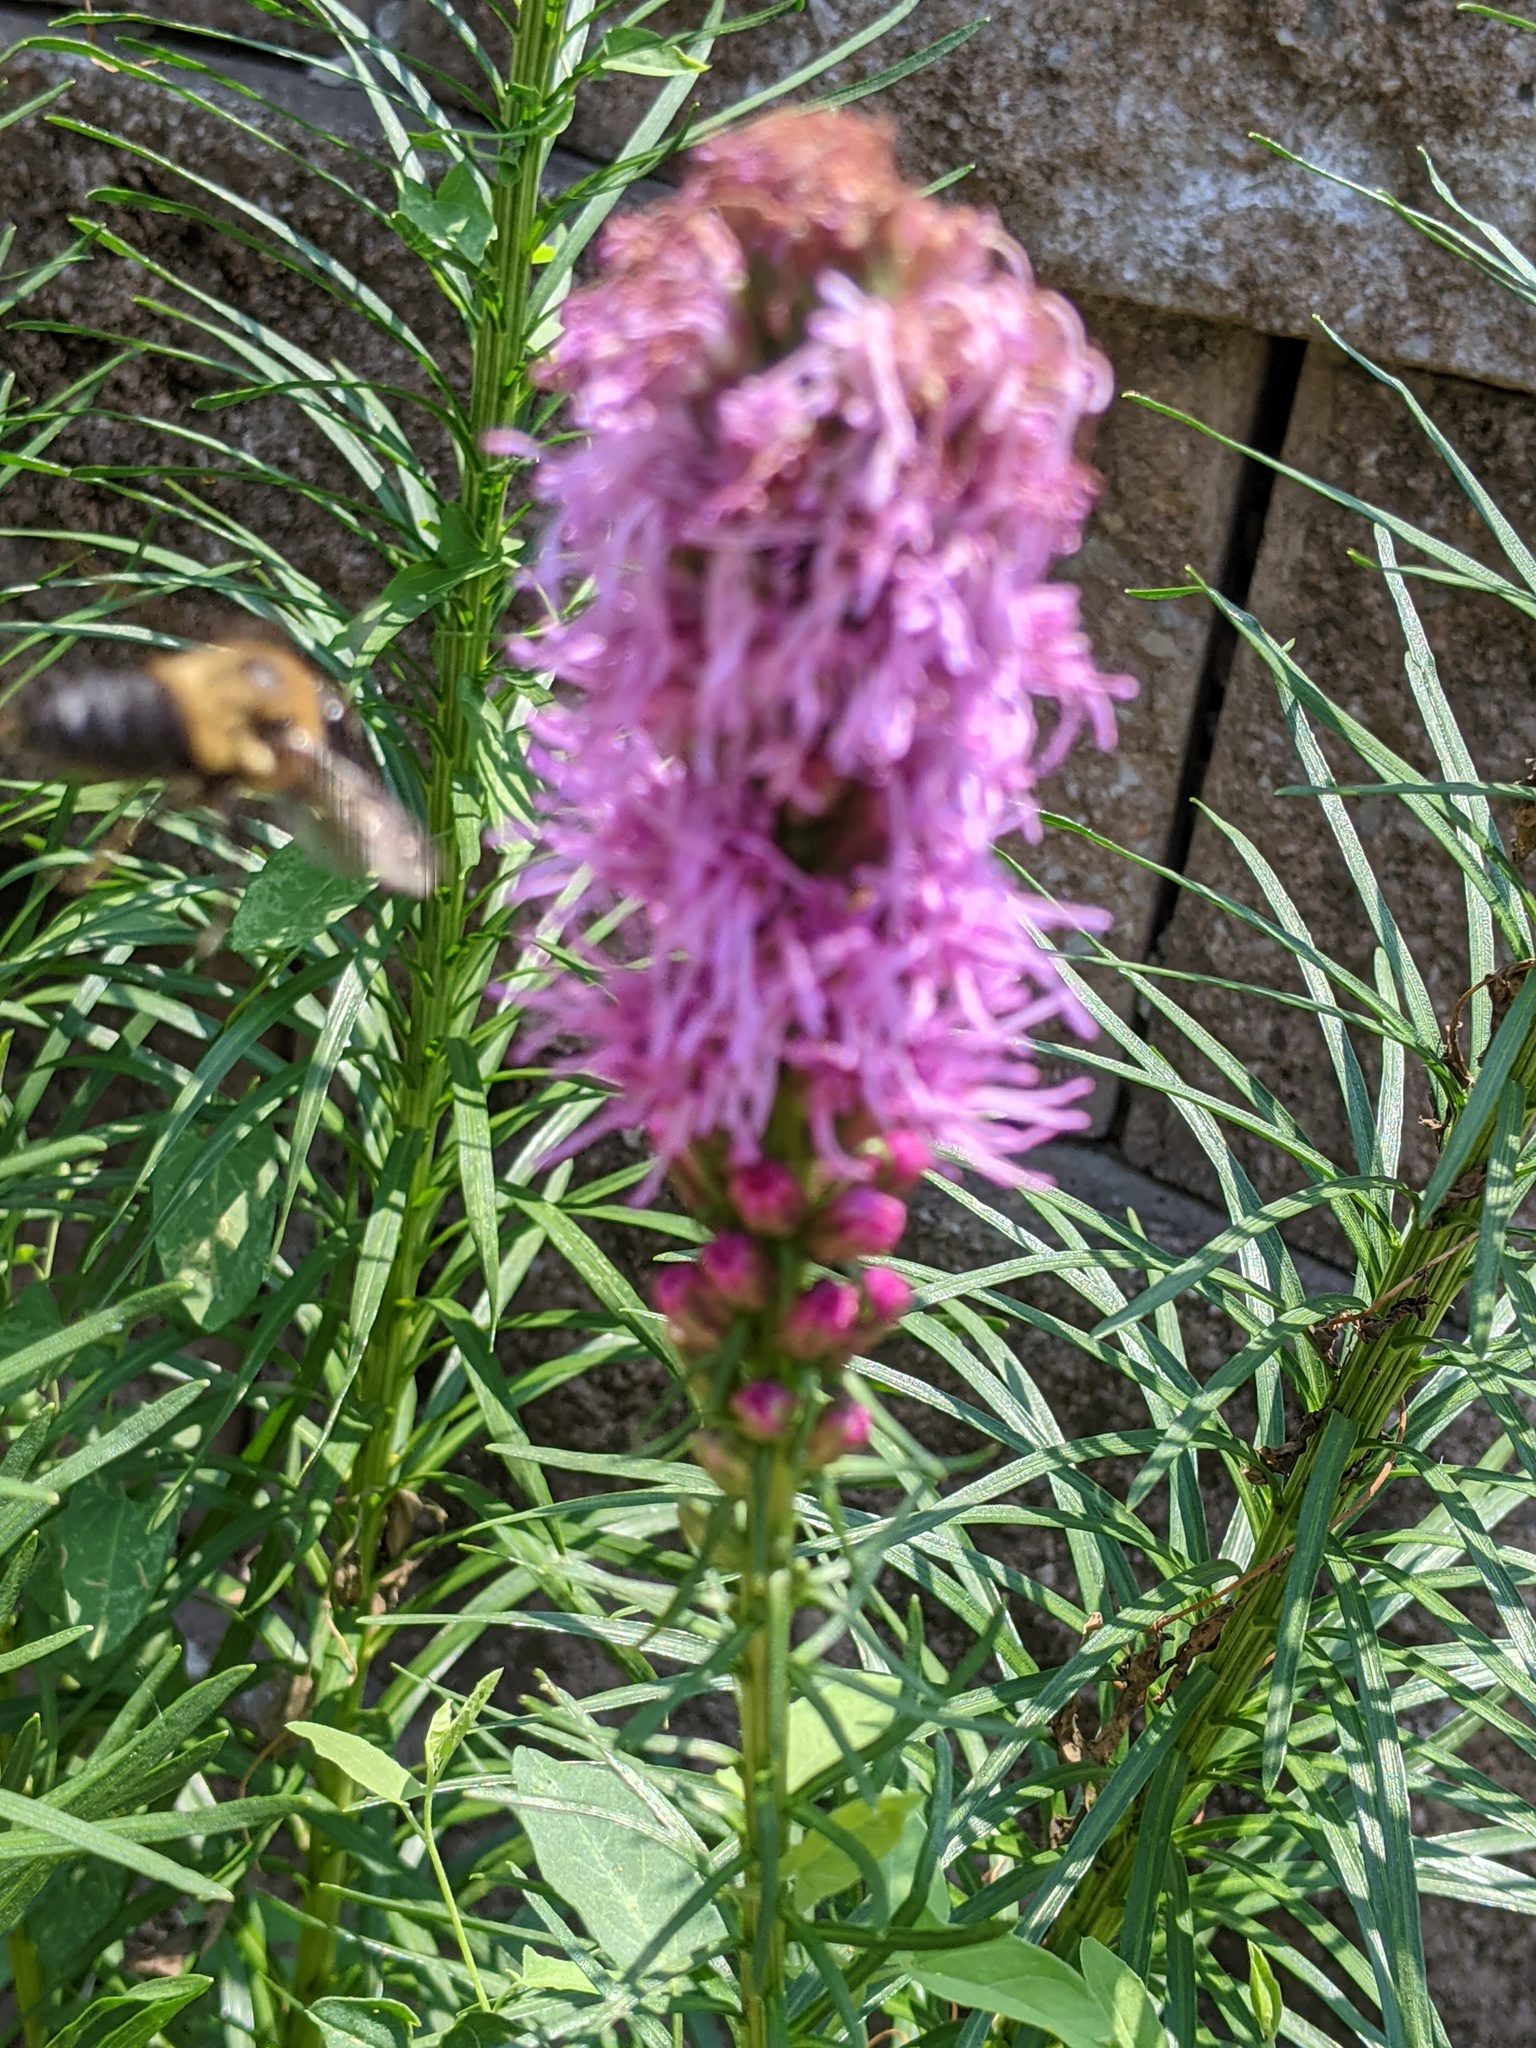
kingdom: Animalia
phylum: Arthropoda
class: Insecta
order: Hymenoptera
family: Apidae
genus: Bombus
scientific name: Bombus griseocollis
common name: Brown-belted bumble bee
